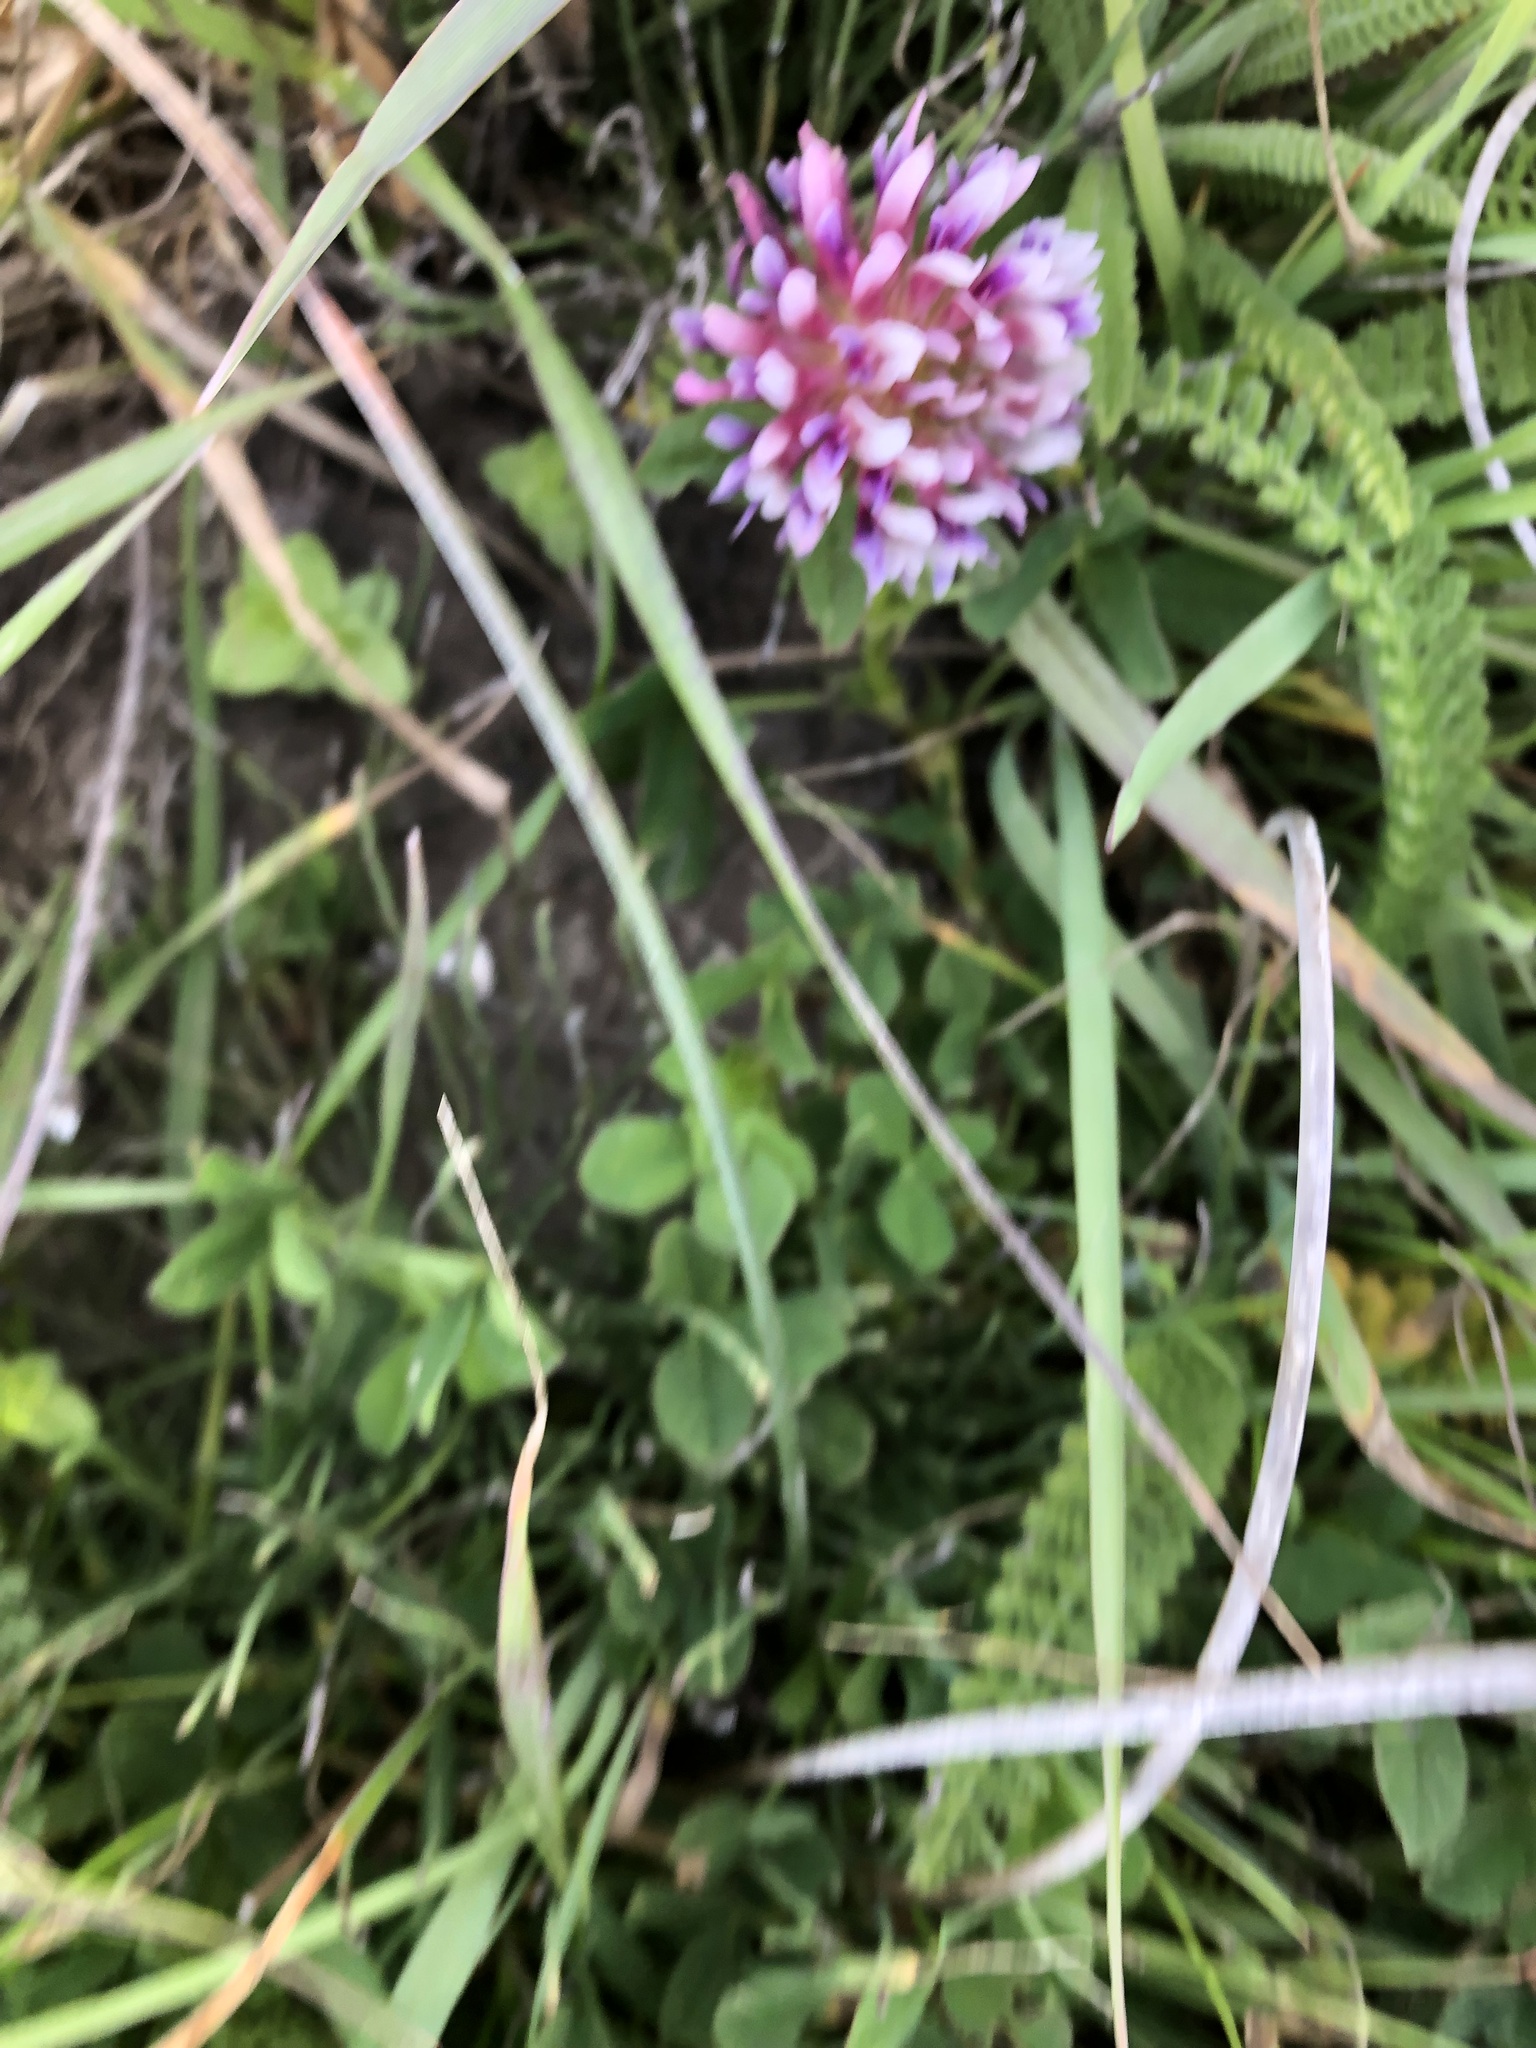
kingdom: Plantae
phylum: Tracheophyta
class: Magnoliopsida
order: Fabales
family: Fabaceae
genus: Trifolium
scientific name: Trifolium wormskioldii
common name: Springbank clover
